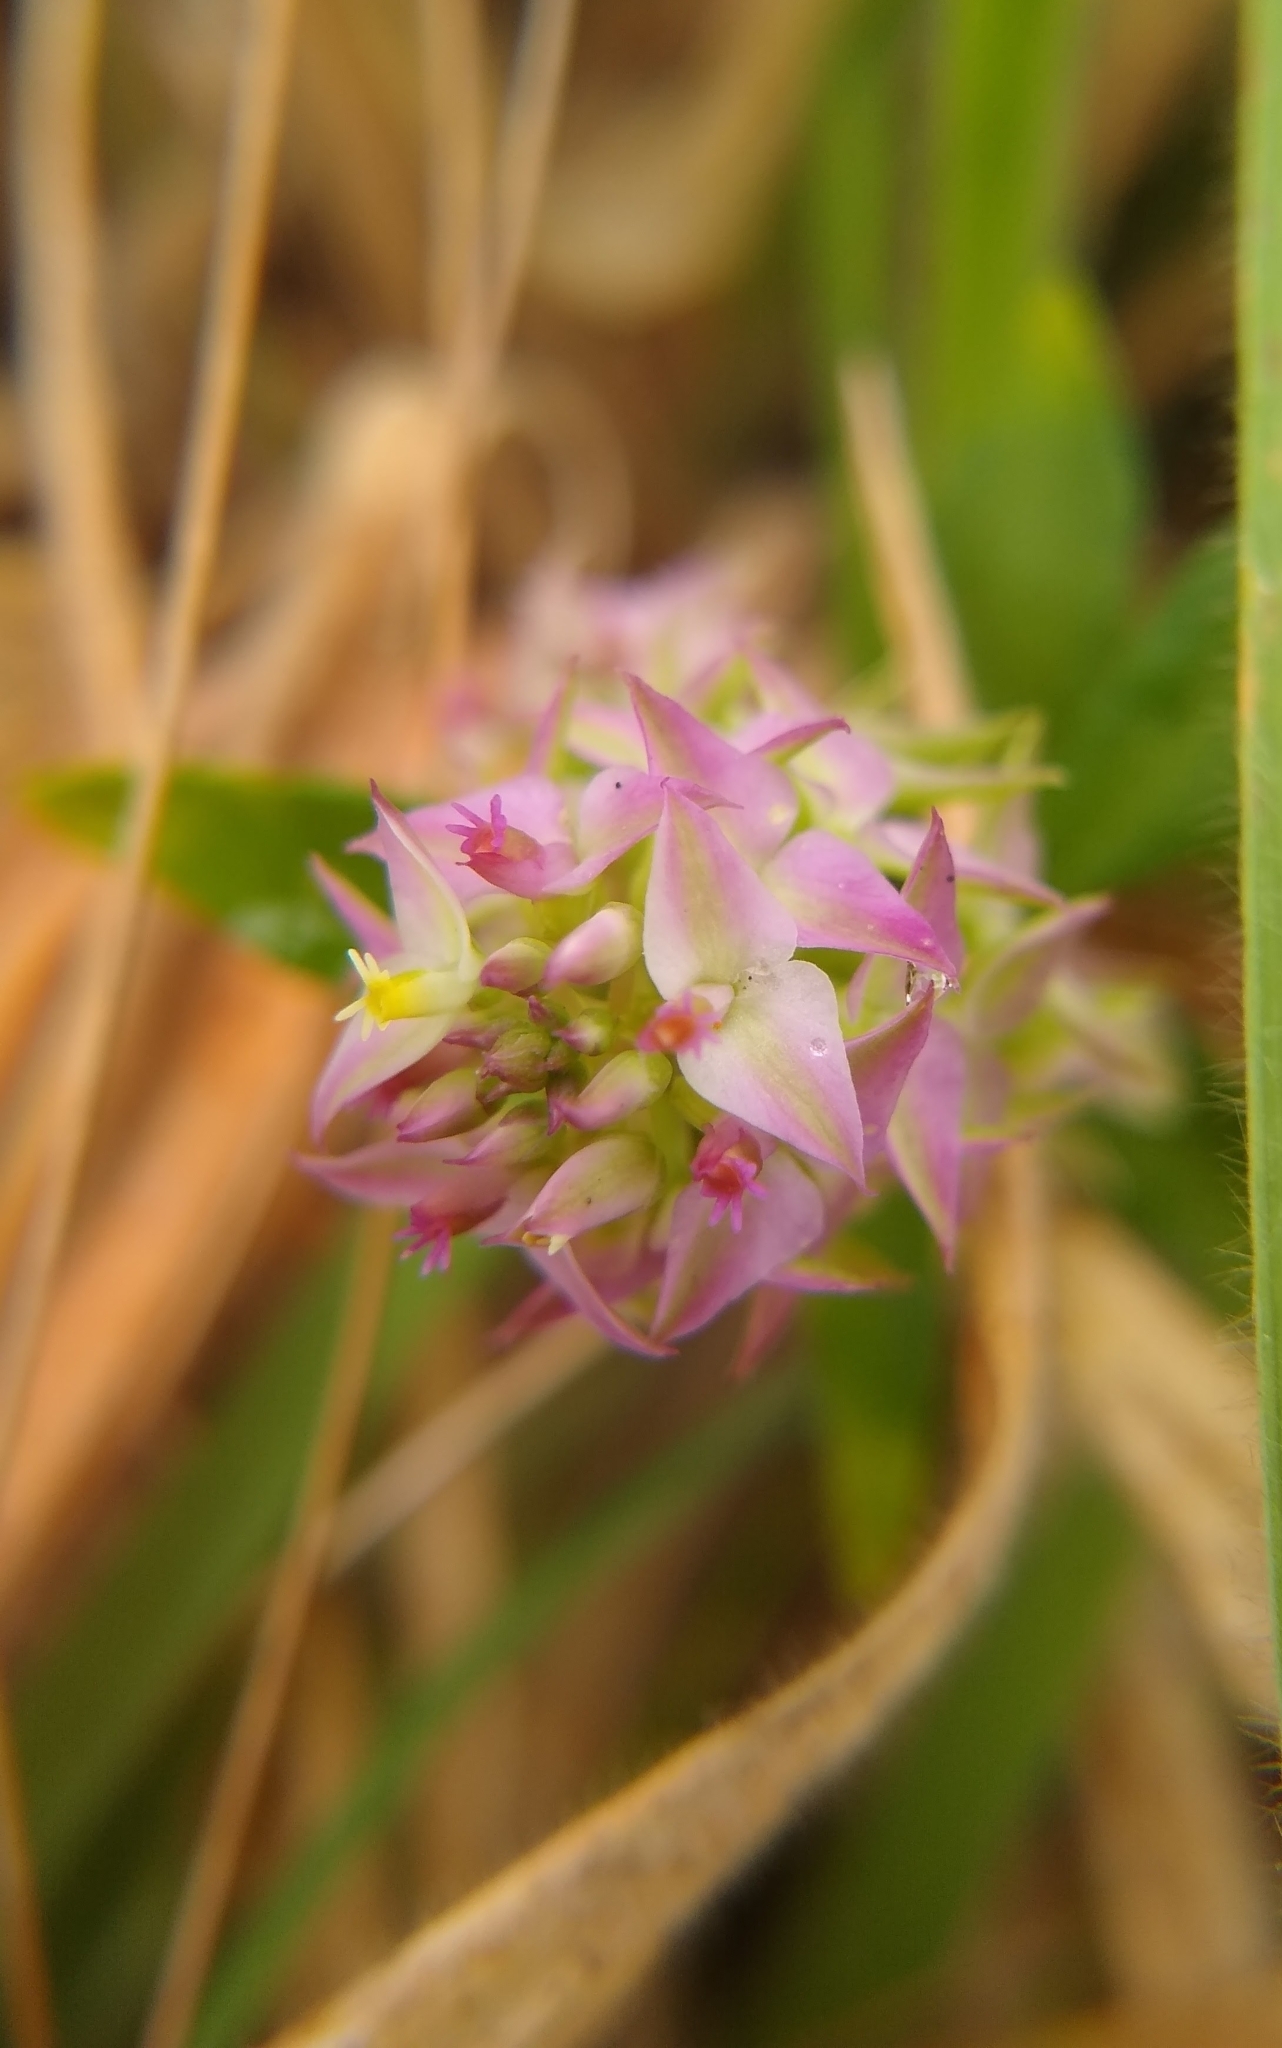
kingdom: Plantae
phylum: Tracheophyta
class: Magnoliopsida
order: Fabales
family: Polygalaceae
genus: Polygala
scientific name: Polygala cruciata
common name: Drumheads
